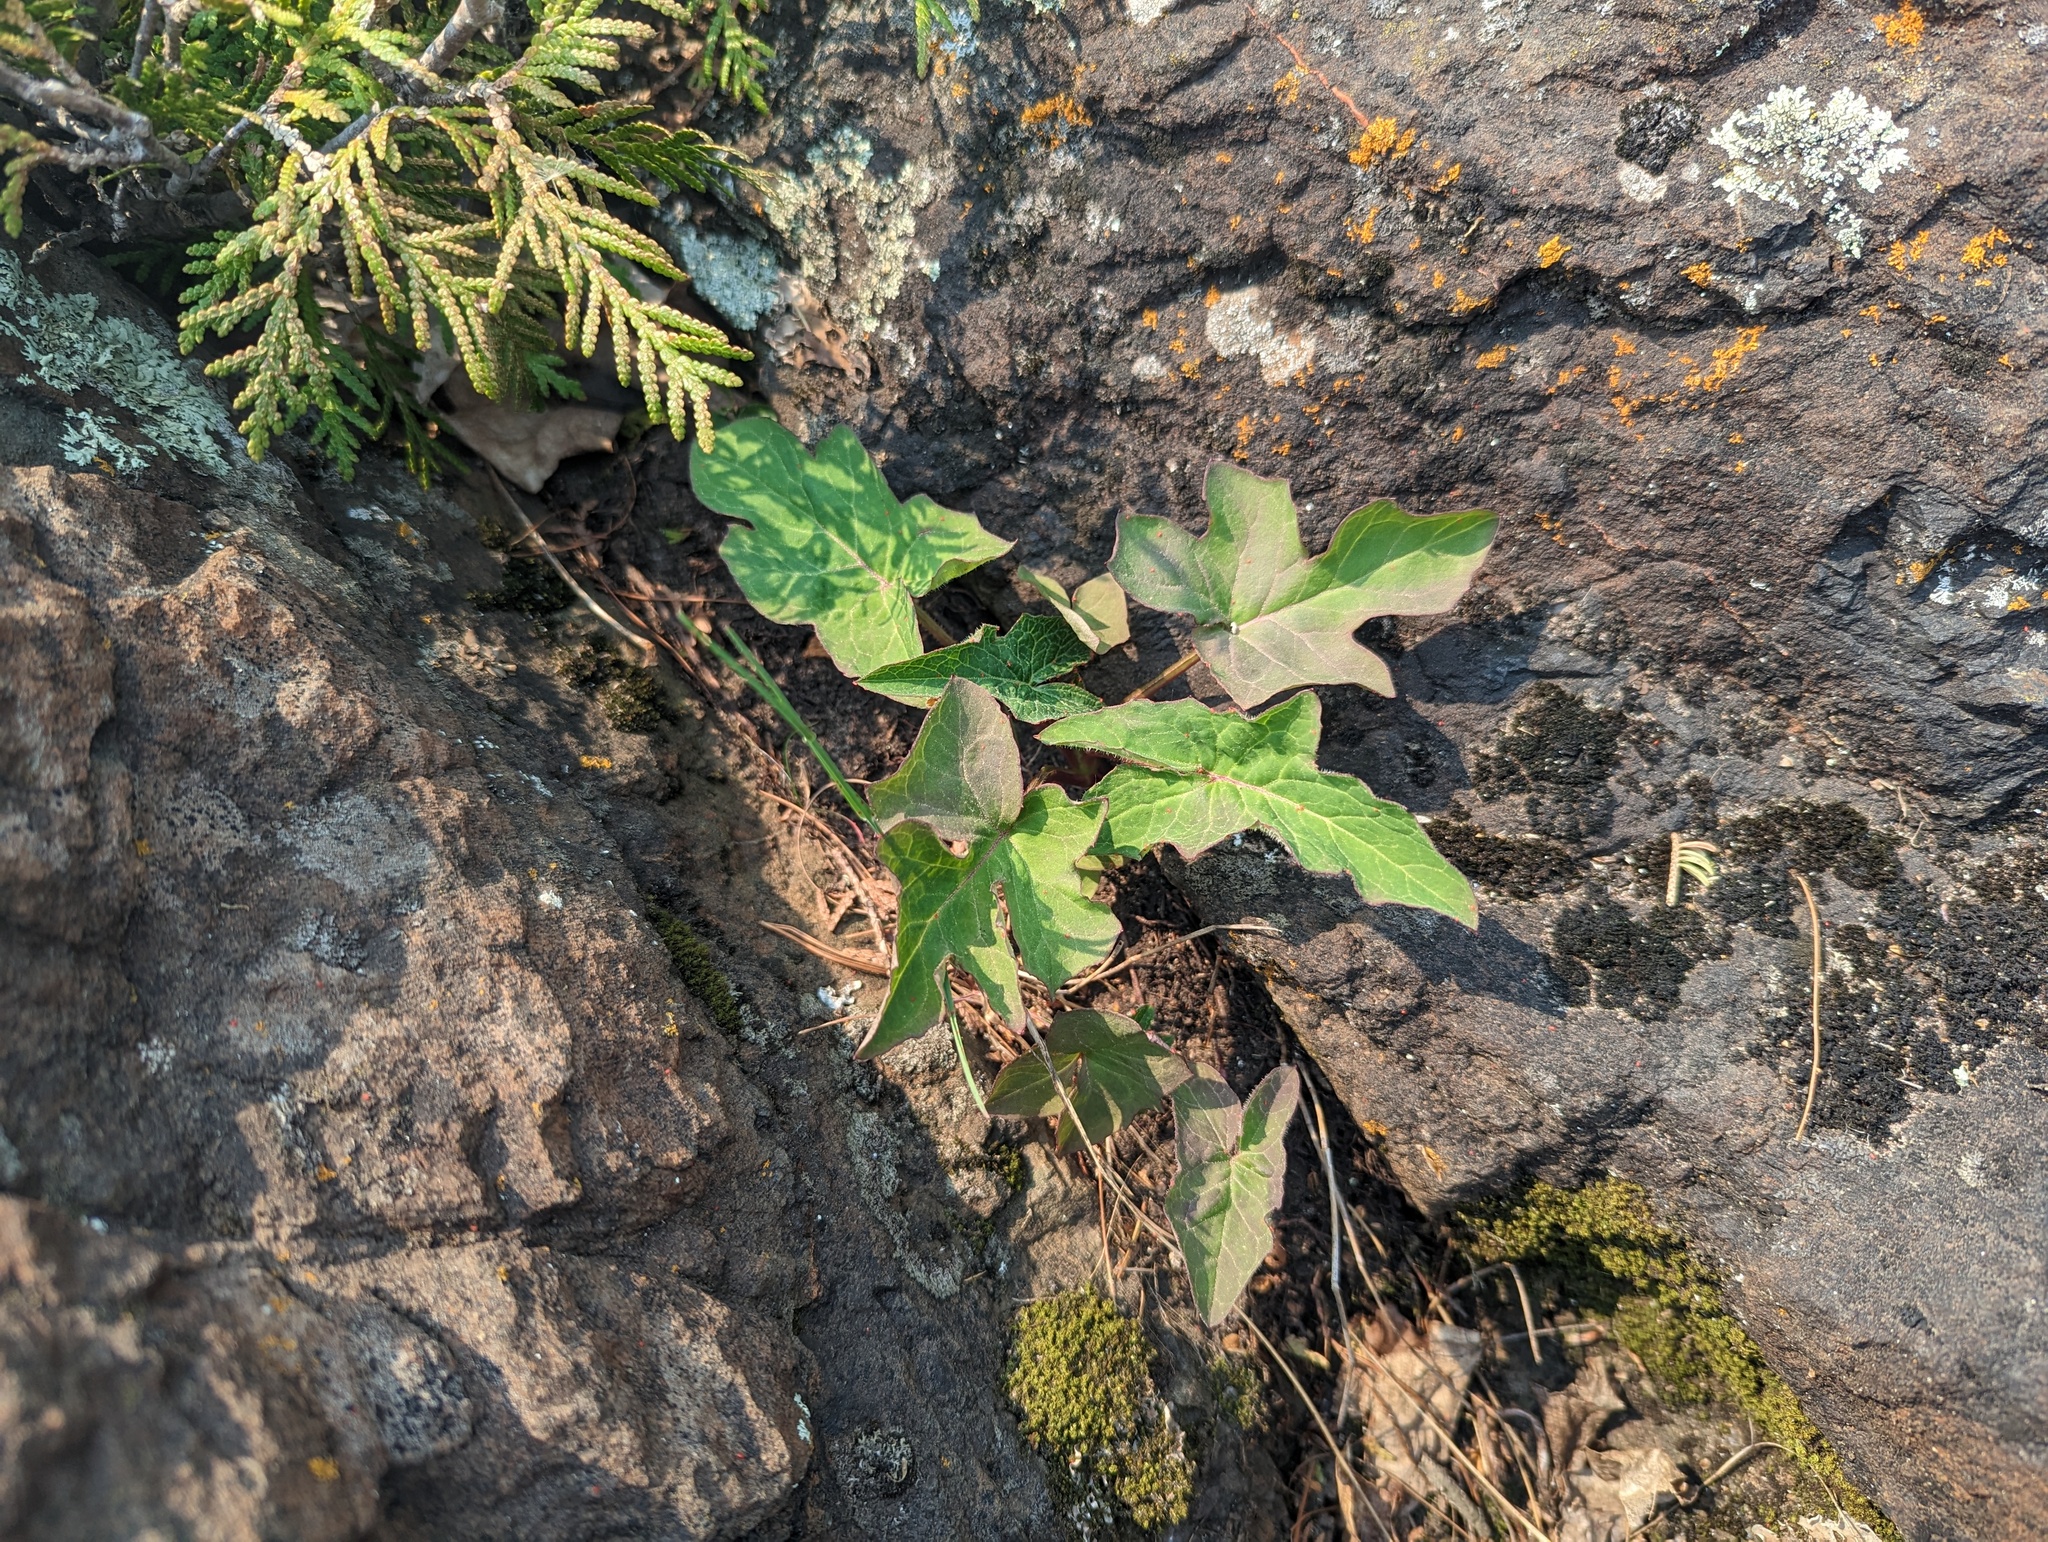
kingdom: Plantae
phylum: Tracheophyta
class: Magnoliopsida
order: Asterales
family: Asteraceae
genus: Nabalus
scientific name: Nabalus albus
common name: White rattlesnakeroot
